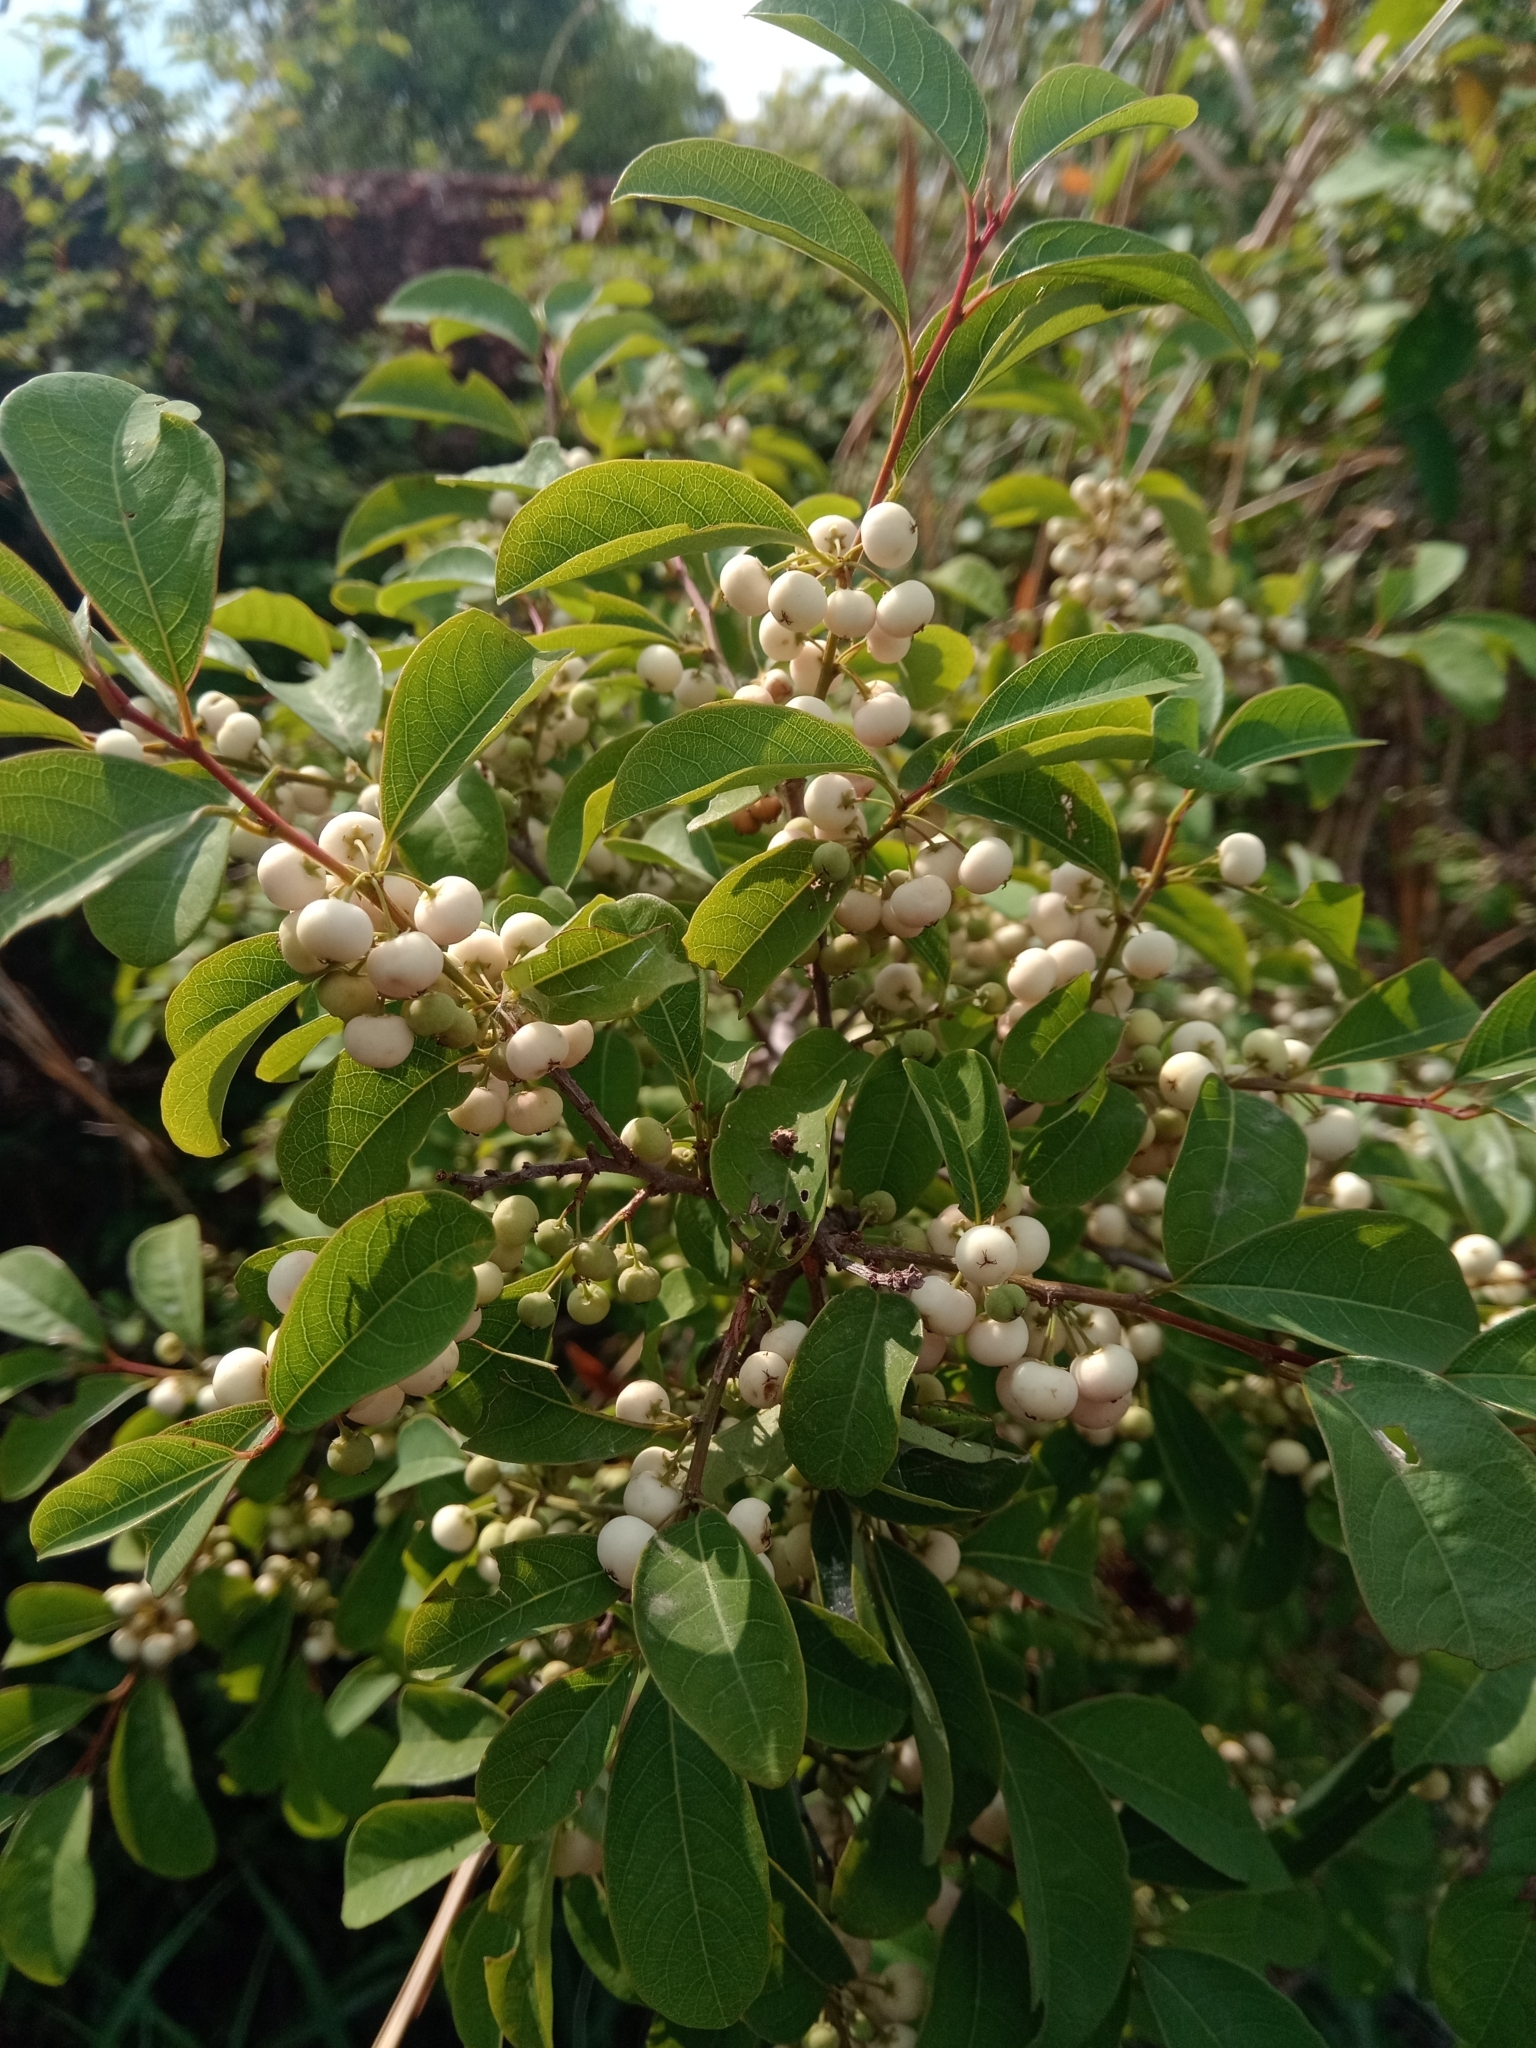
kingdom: Plantae
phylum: Tracheophyta
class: Magnoliopsida
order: Malpighiales
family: Phyllanthaceae
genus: Flueggea
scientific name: Flueggea virosa
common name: Common bushweed
